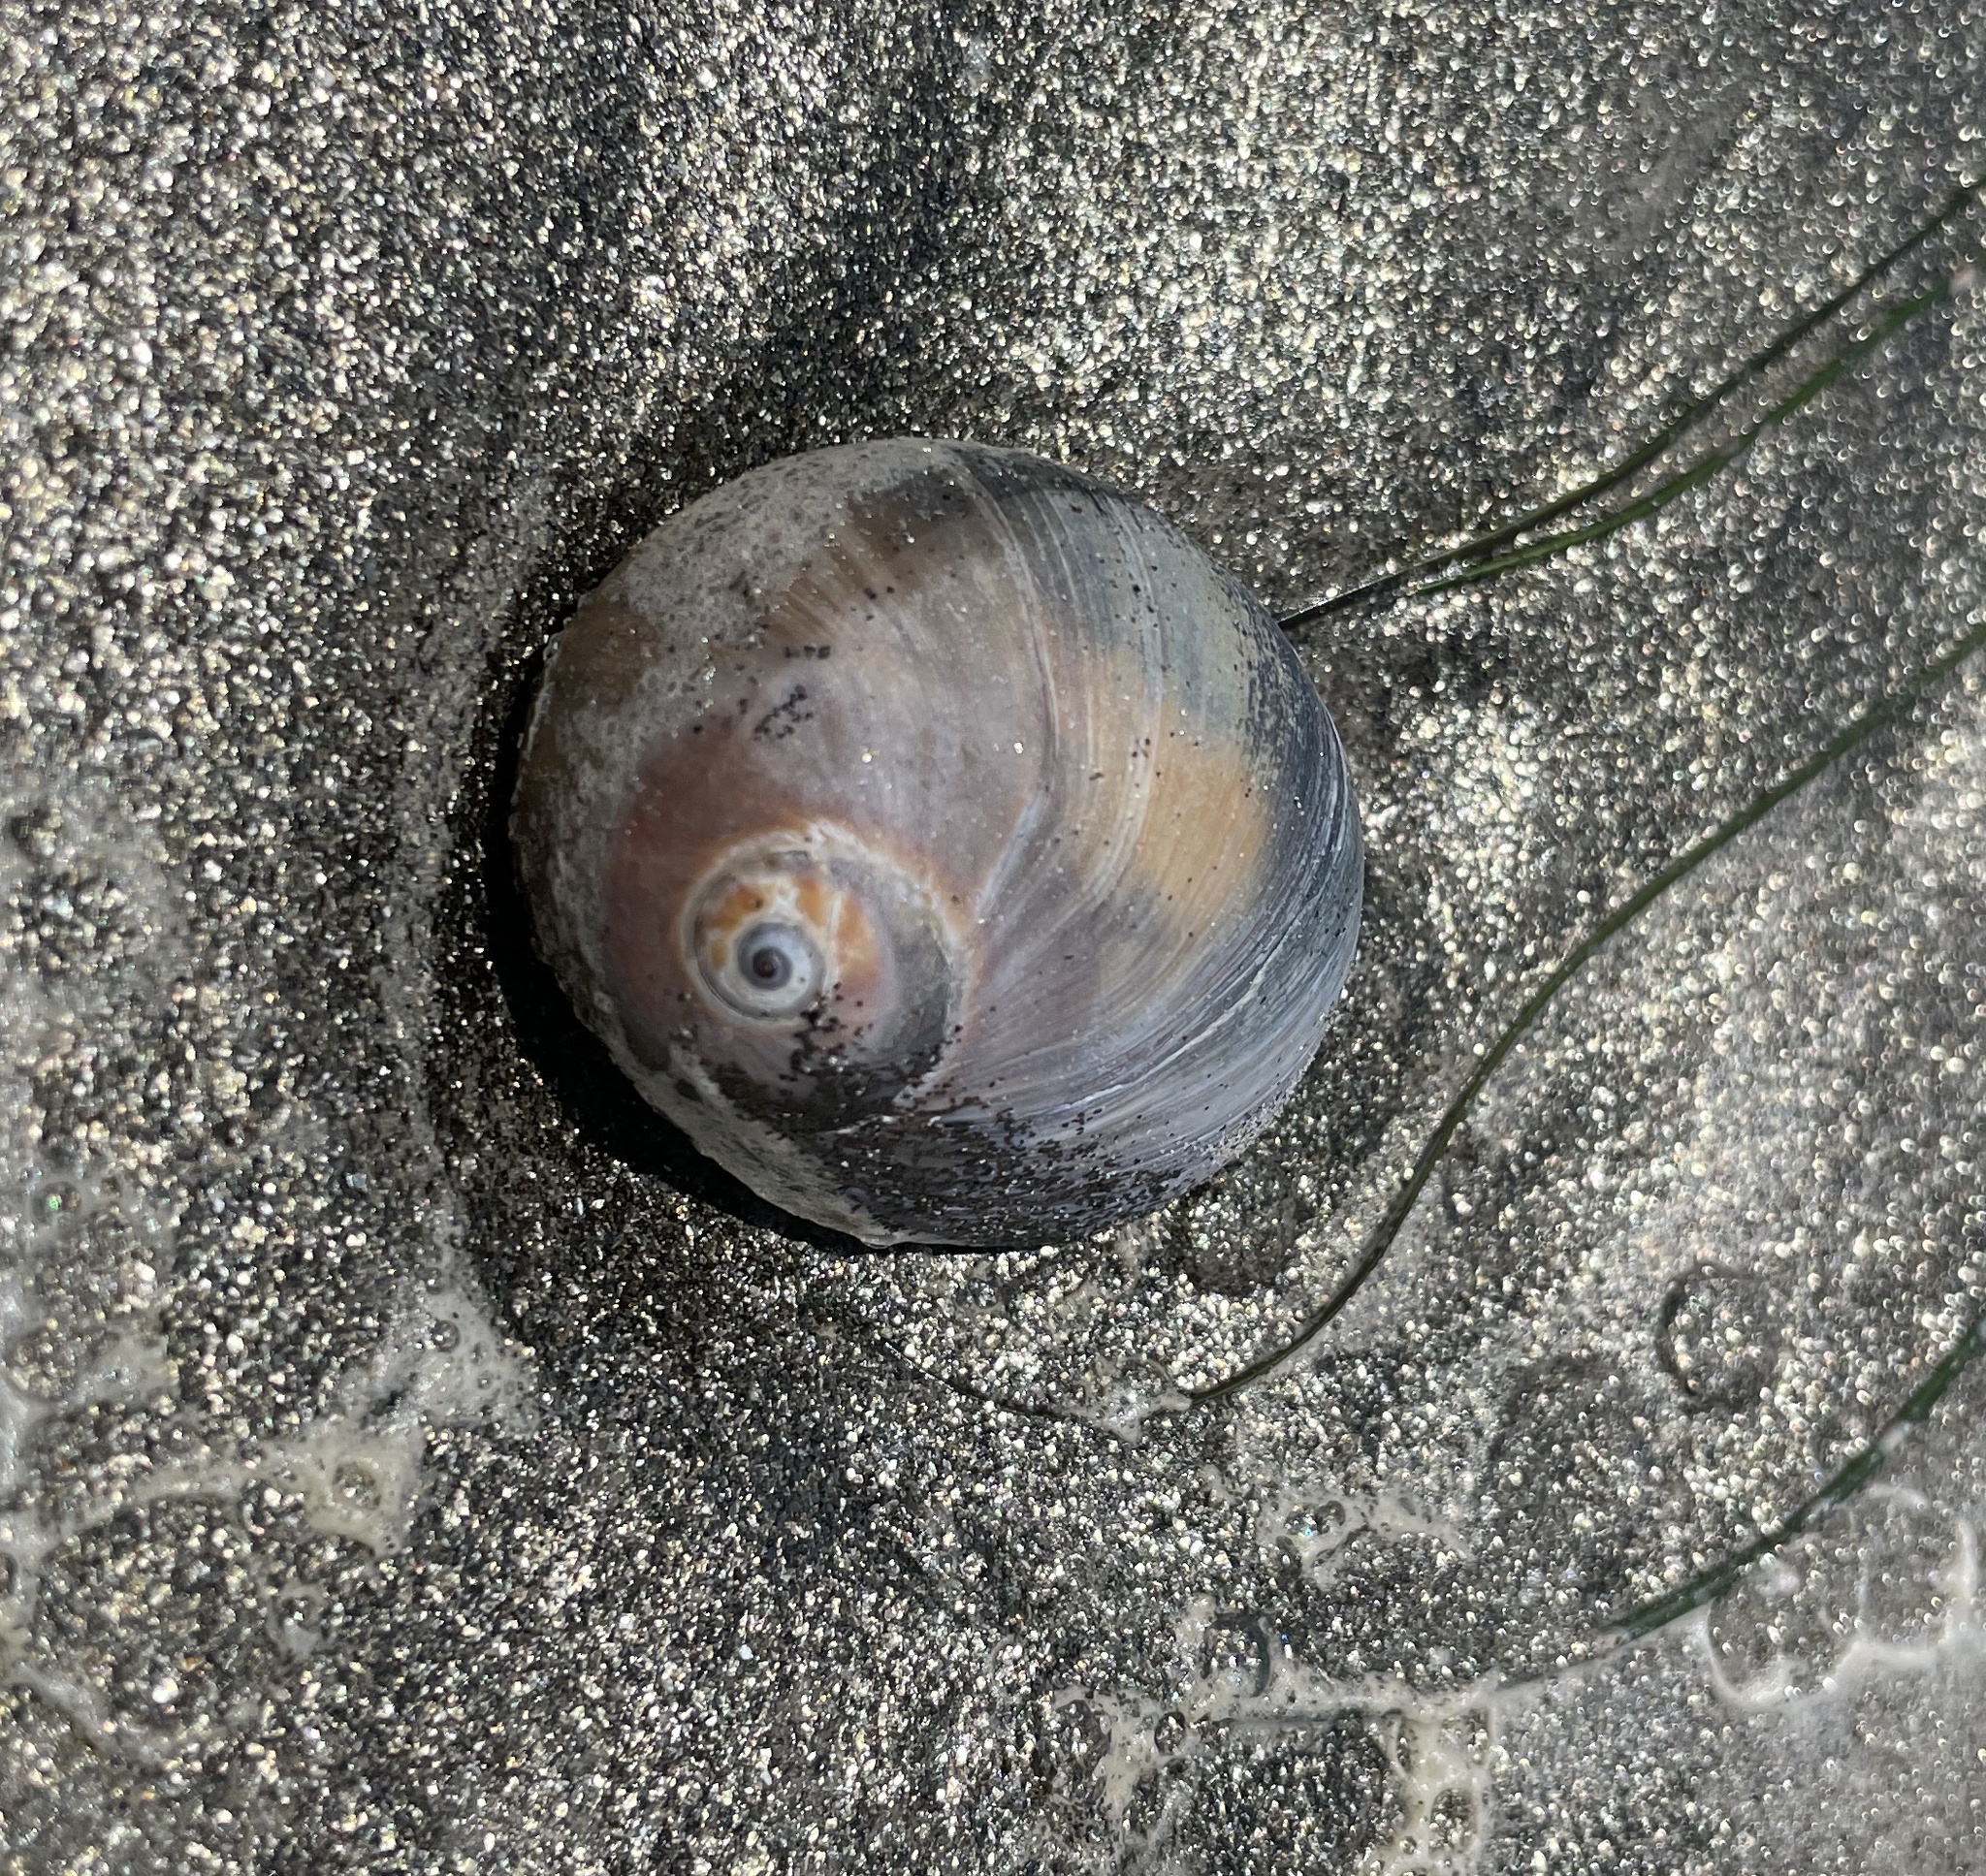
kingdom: Animalia
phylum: Mollusca
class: Gastropoda
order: Littorinimorpha
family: Naticidae
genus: Neverita
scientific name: Neverita lewisii
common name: Lewis' moonsnail
